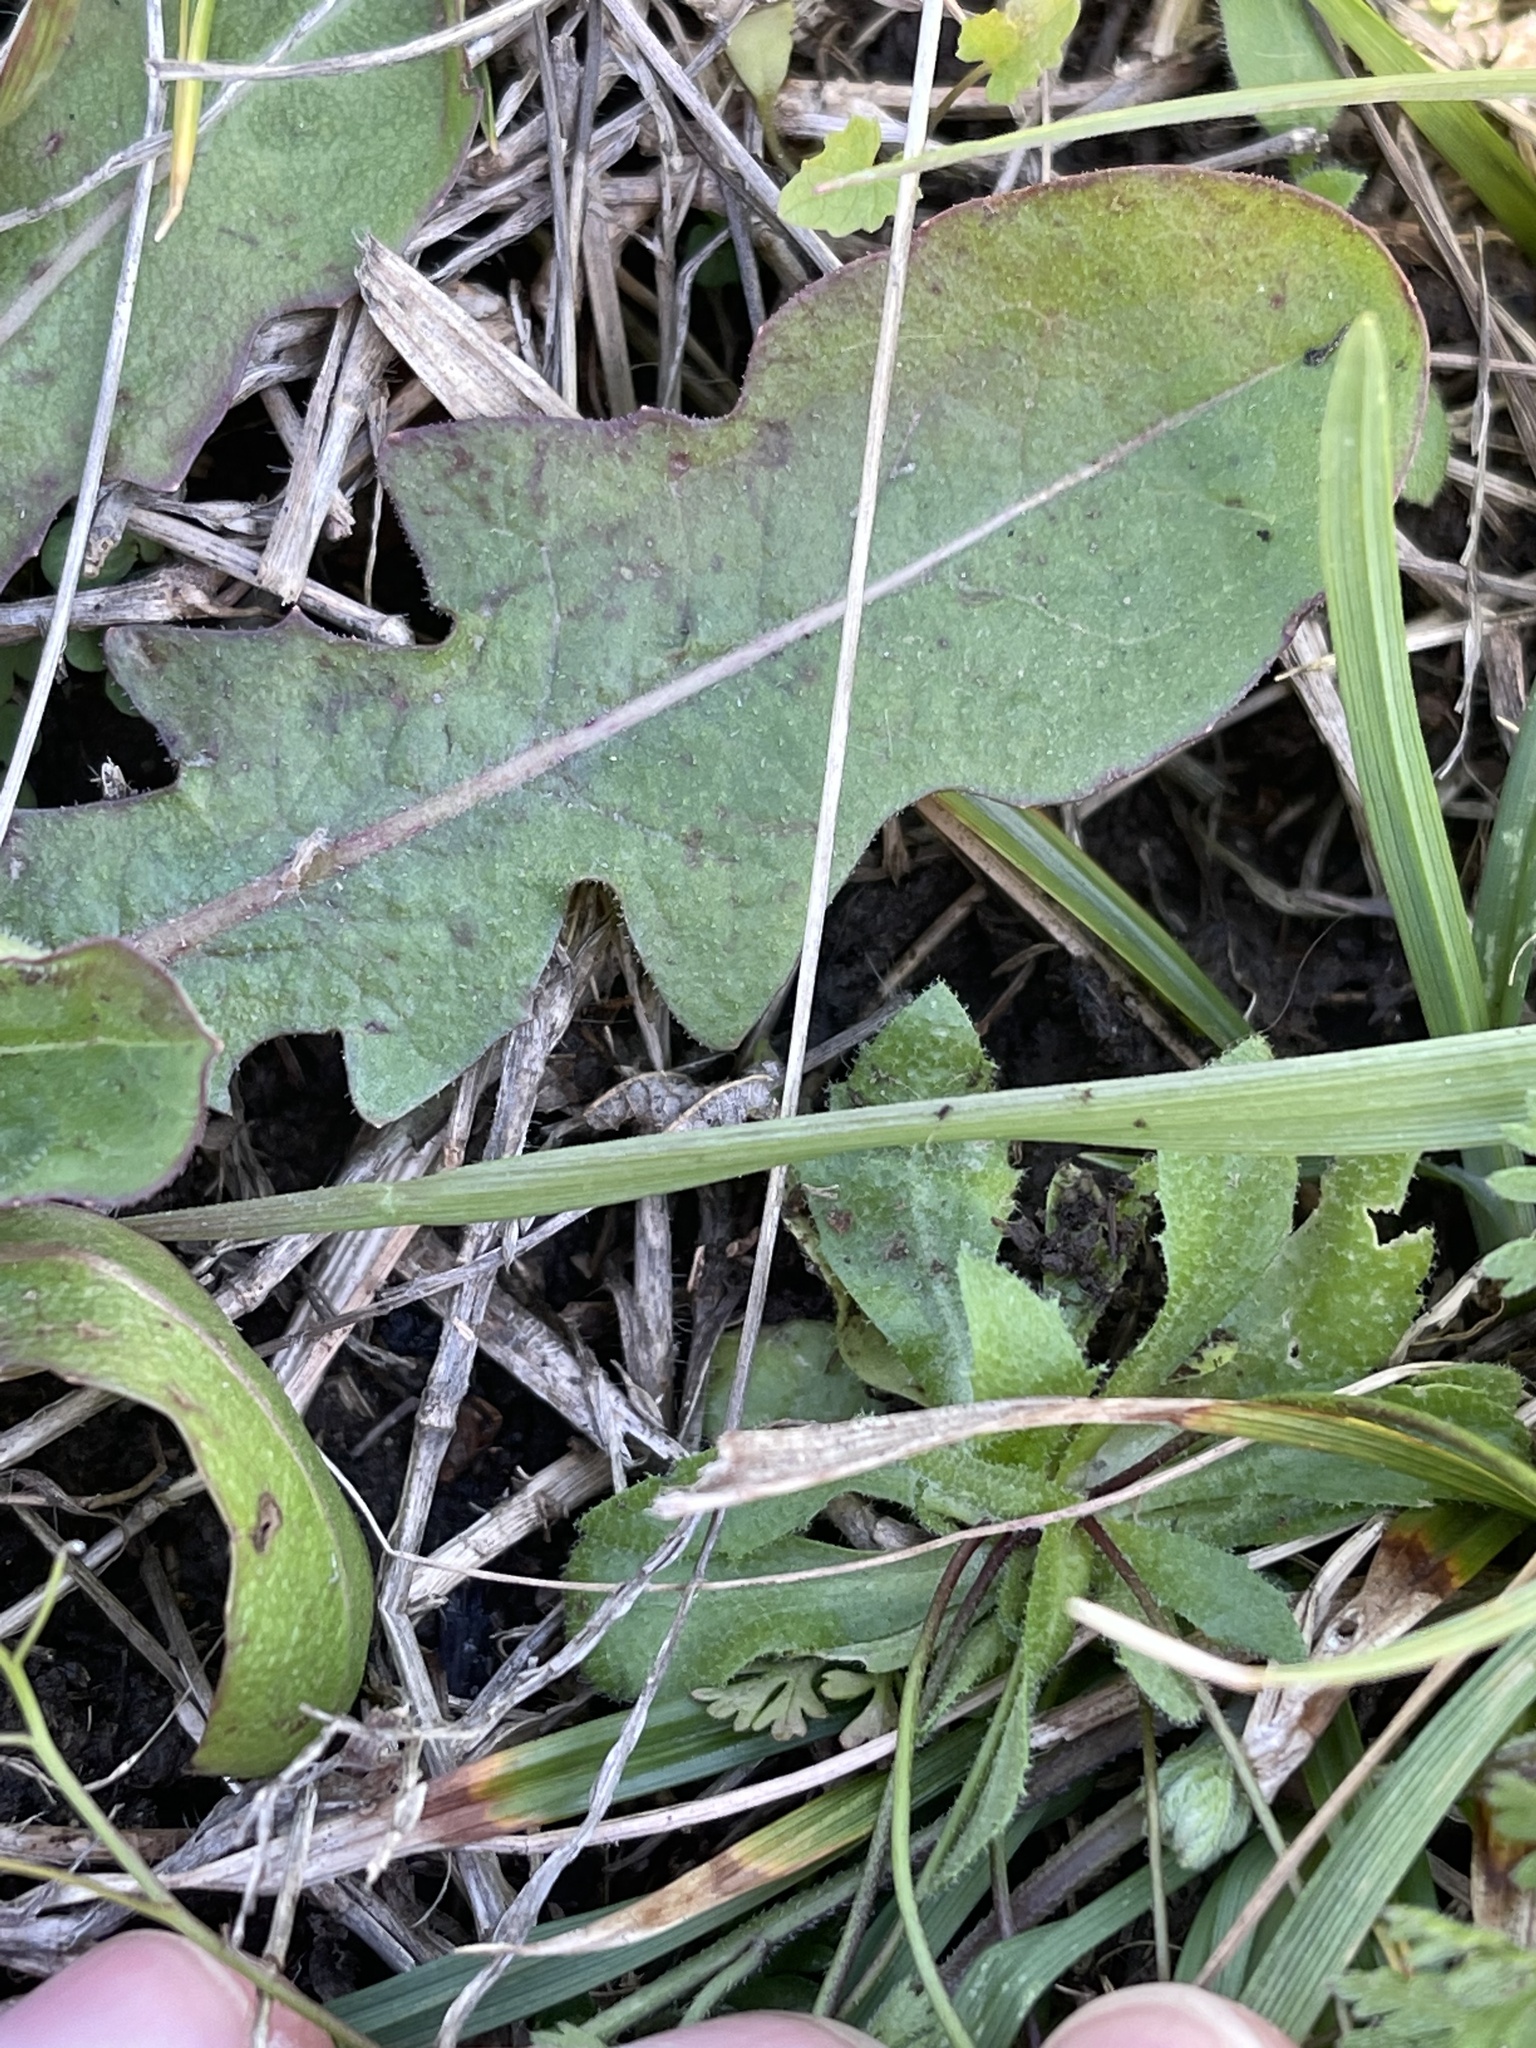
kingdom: Plantae
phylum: Tracheophyta
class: Magnoliopsida
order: Brassicales
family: Brassicaceae
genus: Draba
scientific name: Draba verna
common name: Spring draba
